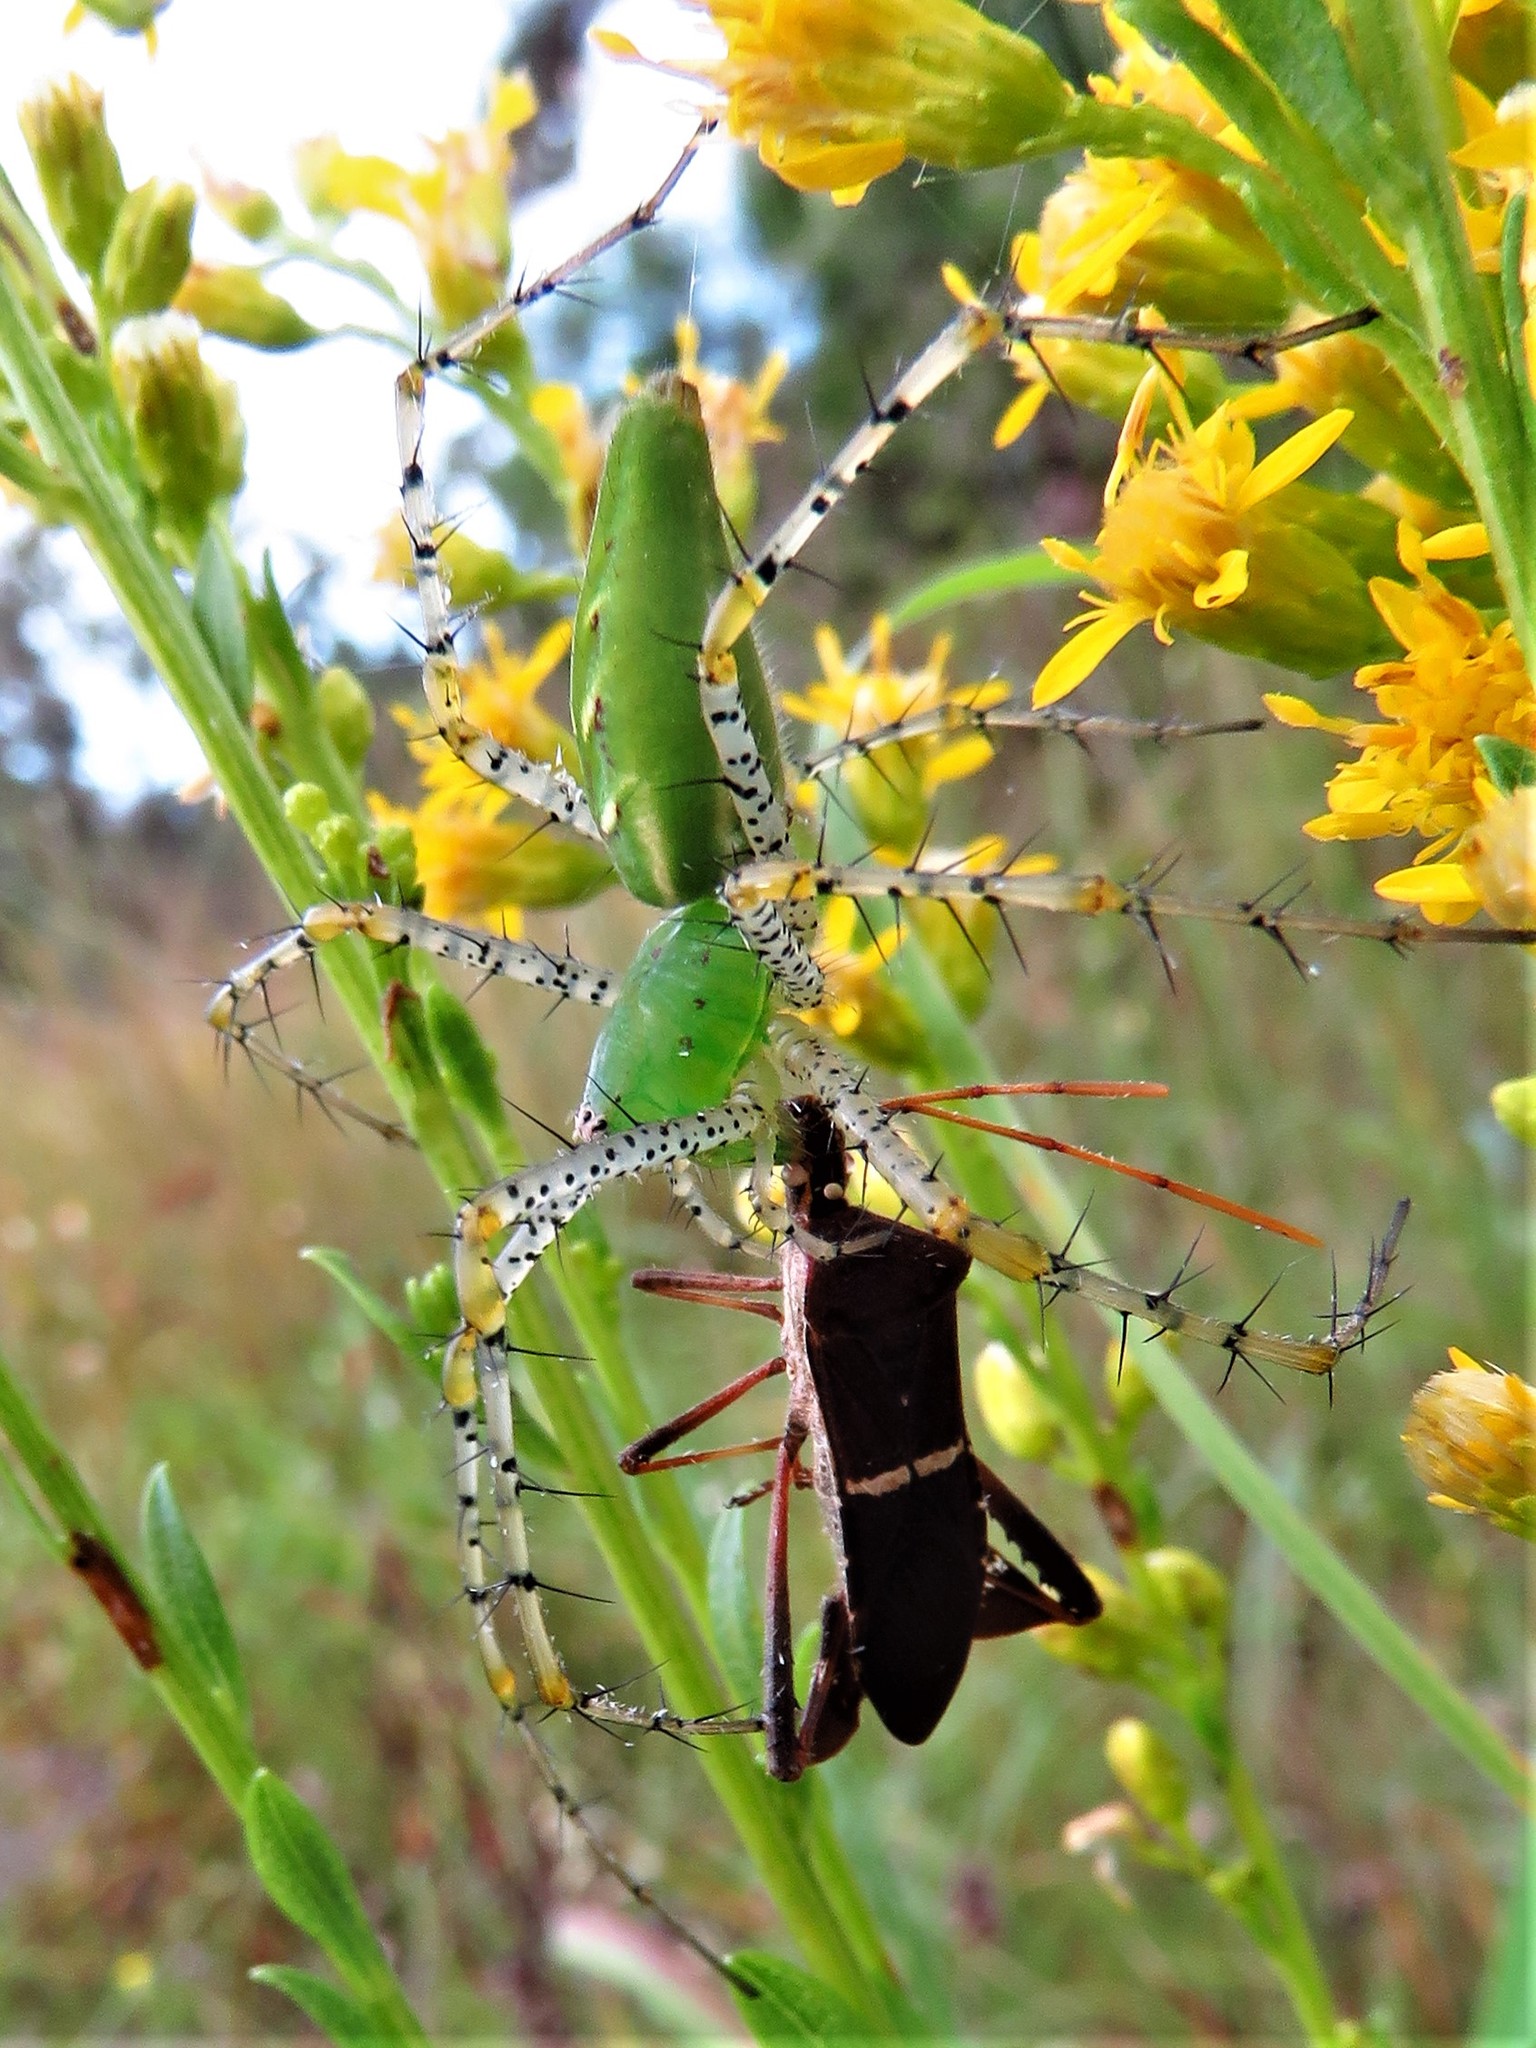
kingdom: Animalia
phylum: Arthropoda
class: Arachnida
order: Araneae
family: Oxyopidae
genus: Peucetia
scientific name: Peucetia viridans
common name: Lynx spiders
